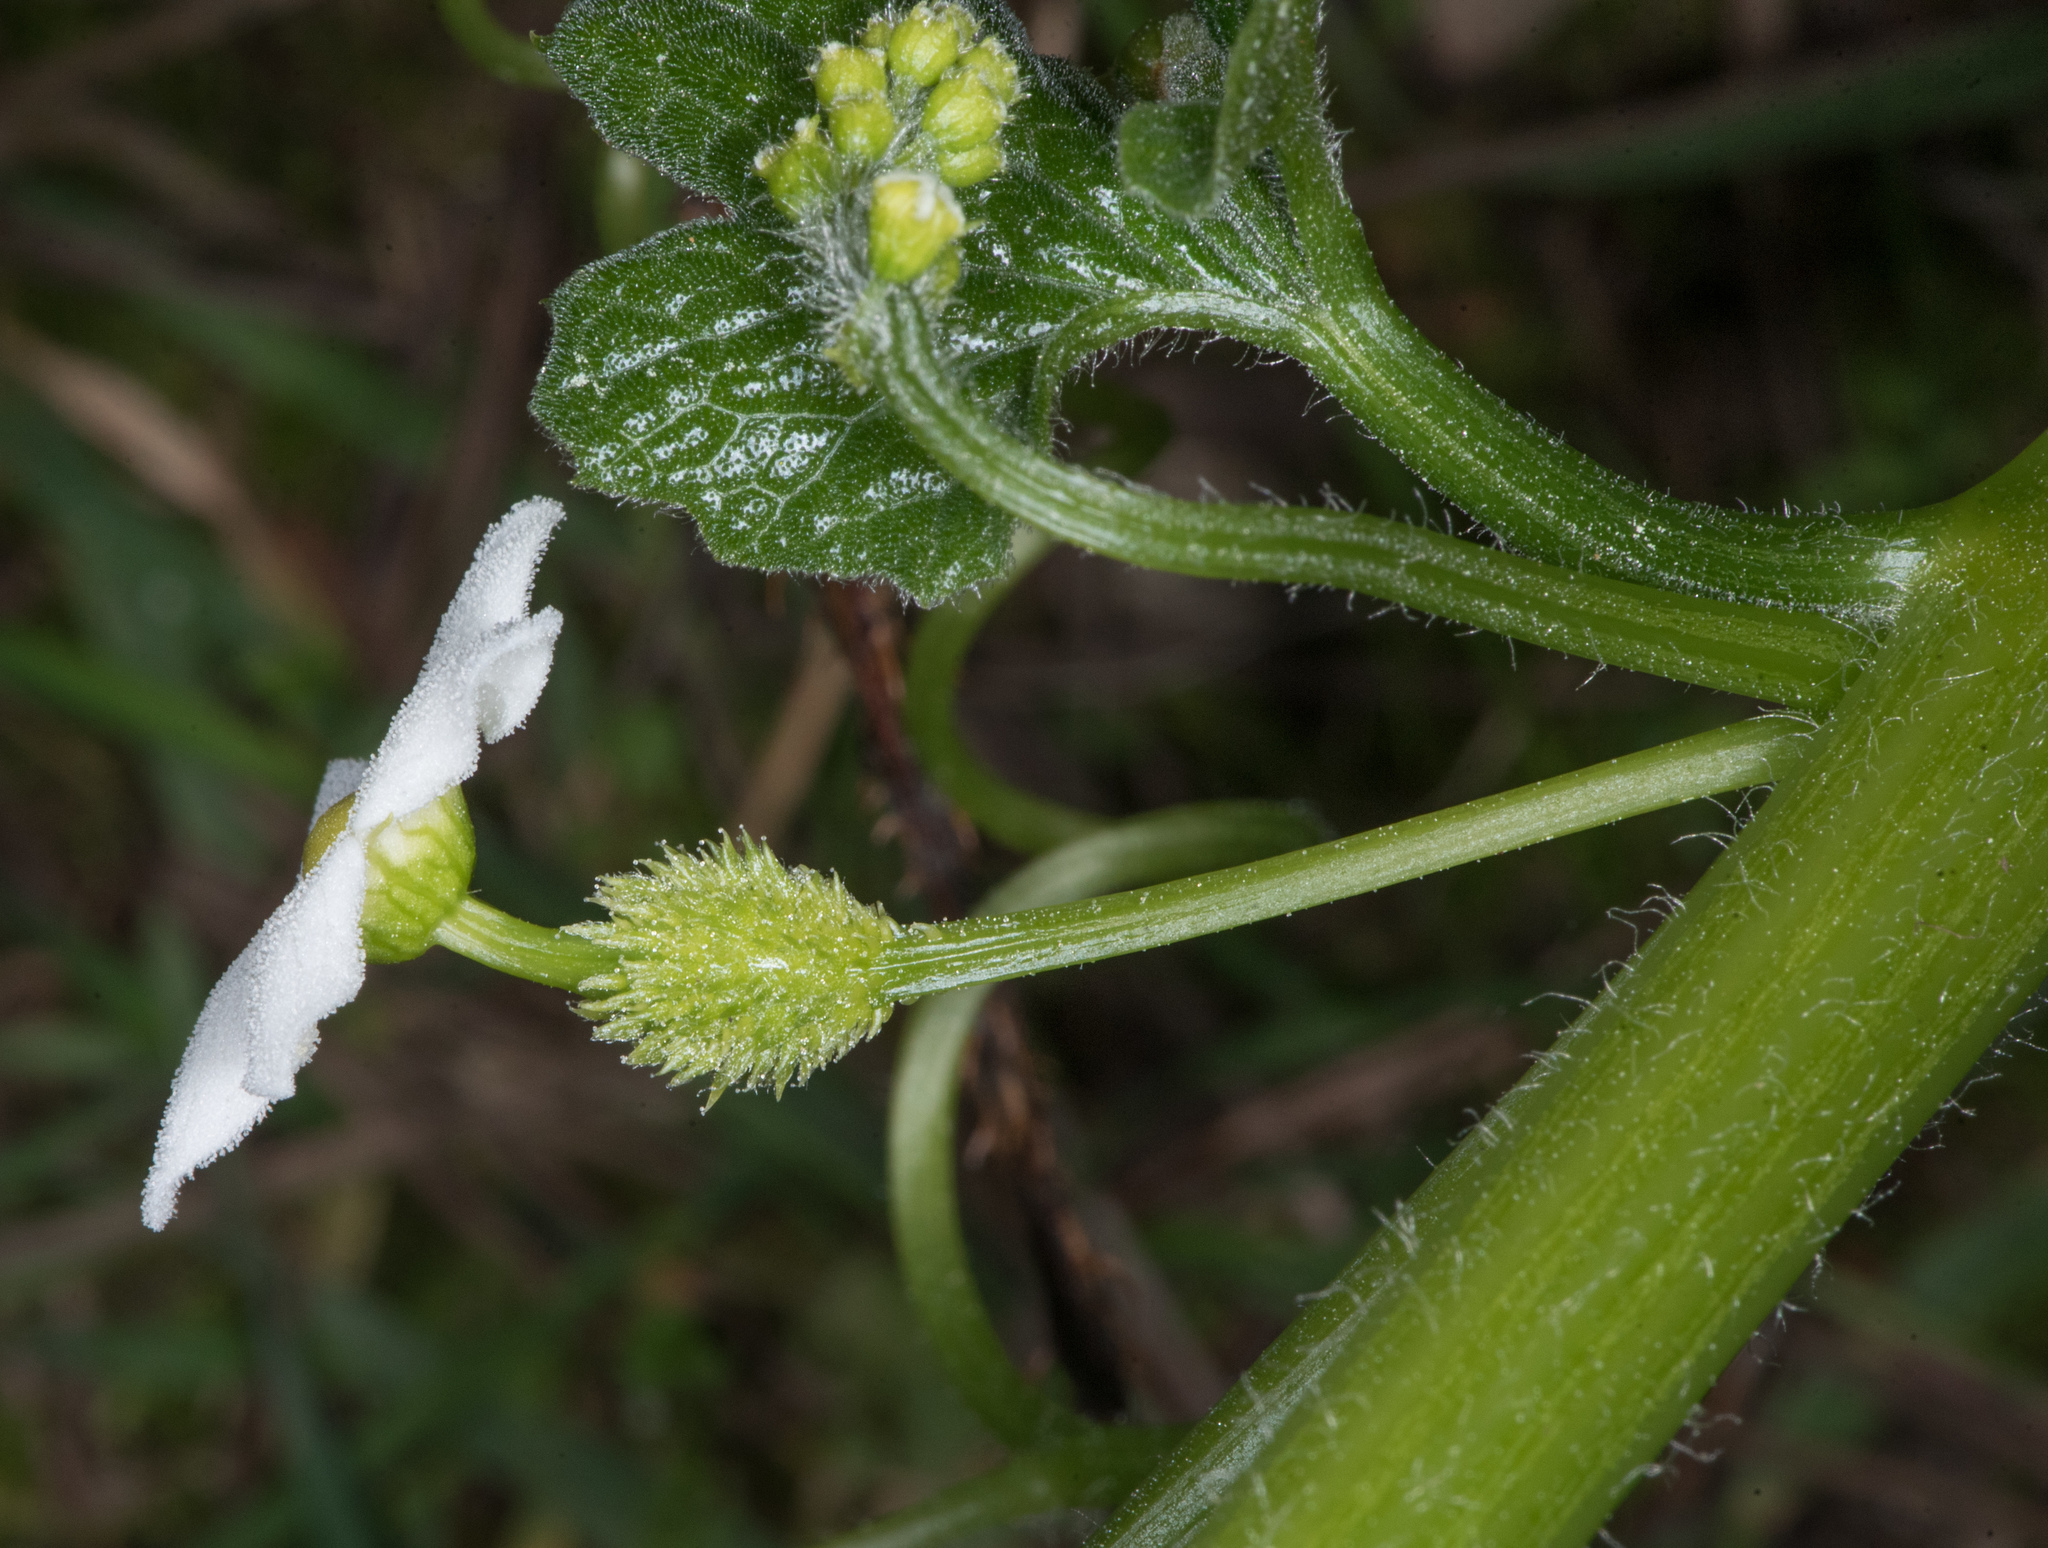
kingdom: Plantae
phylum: Tracheophyta
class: Magnoliopsida
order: Cucurbitales
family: Cucurbitaceae
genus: Marah
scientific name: Marah fabacea
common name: California manroot
